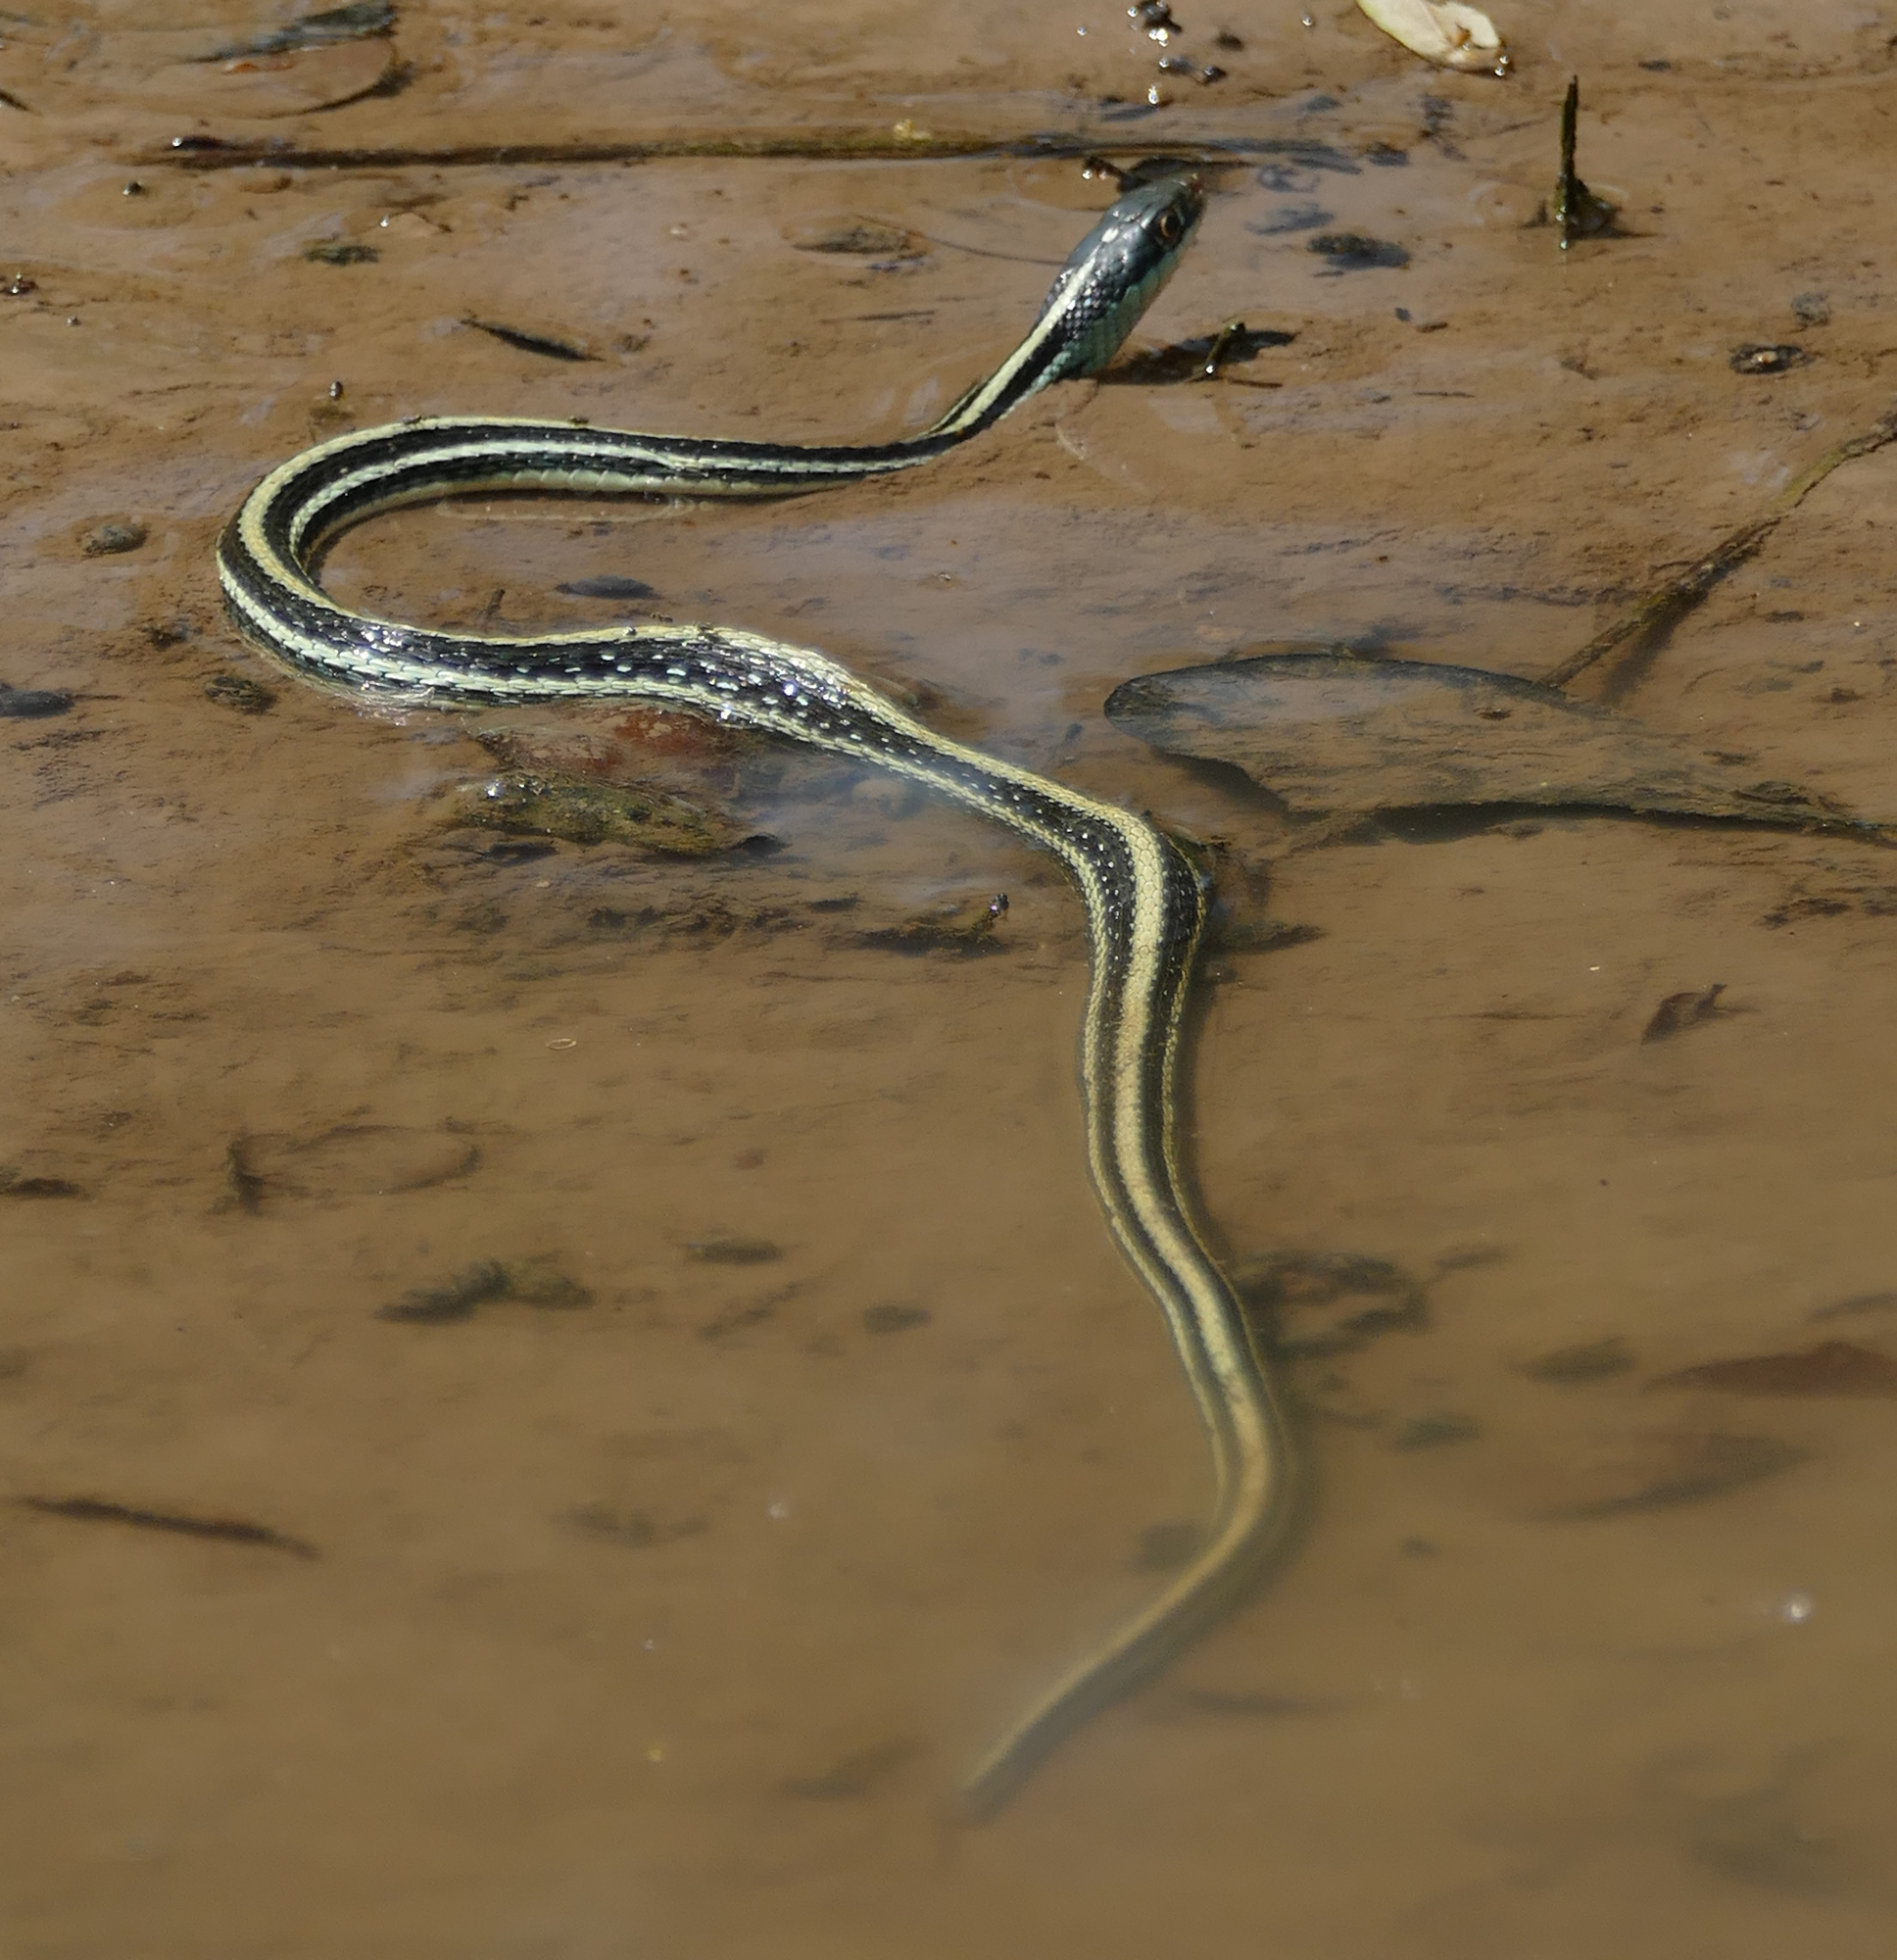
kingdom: Animalia
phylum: Chordata
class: Squamata
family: Colubridae
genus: Thamnophis
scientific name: Thamnophis proximus
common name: Western ribbon snake
